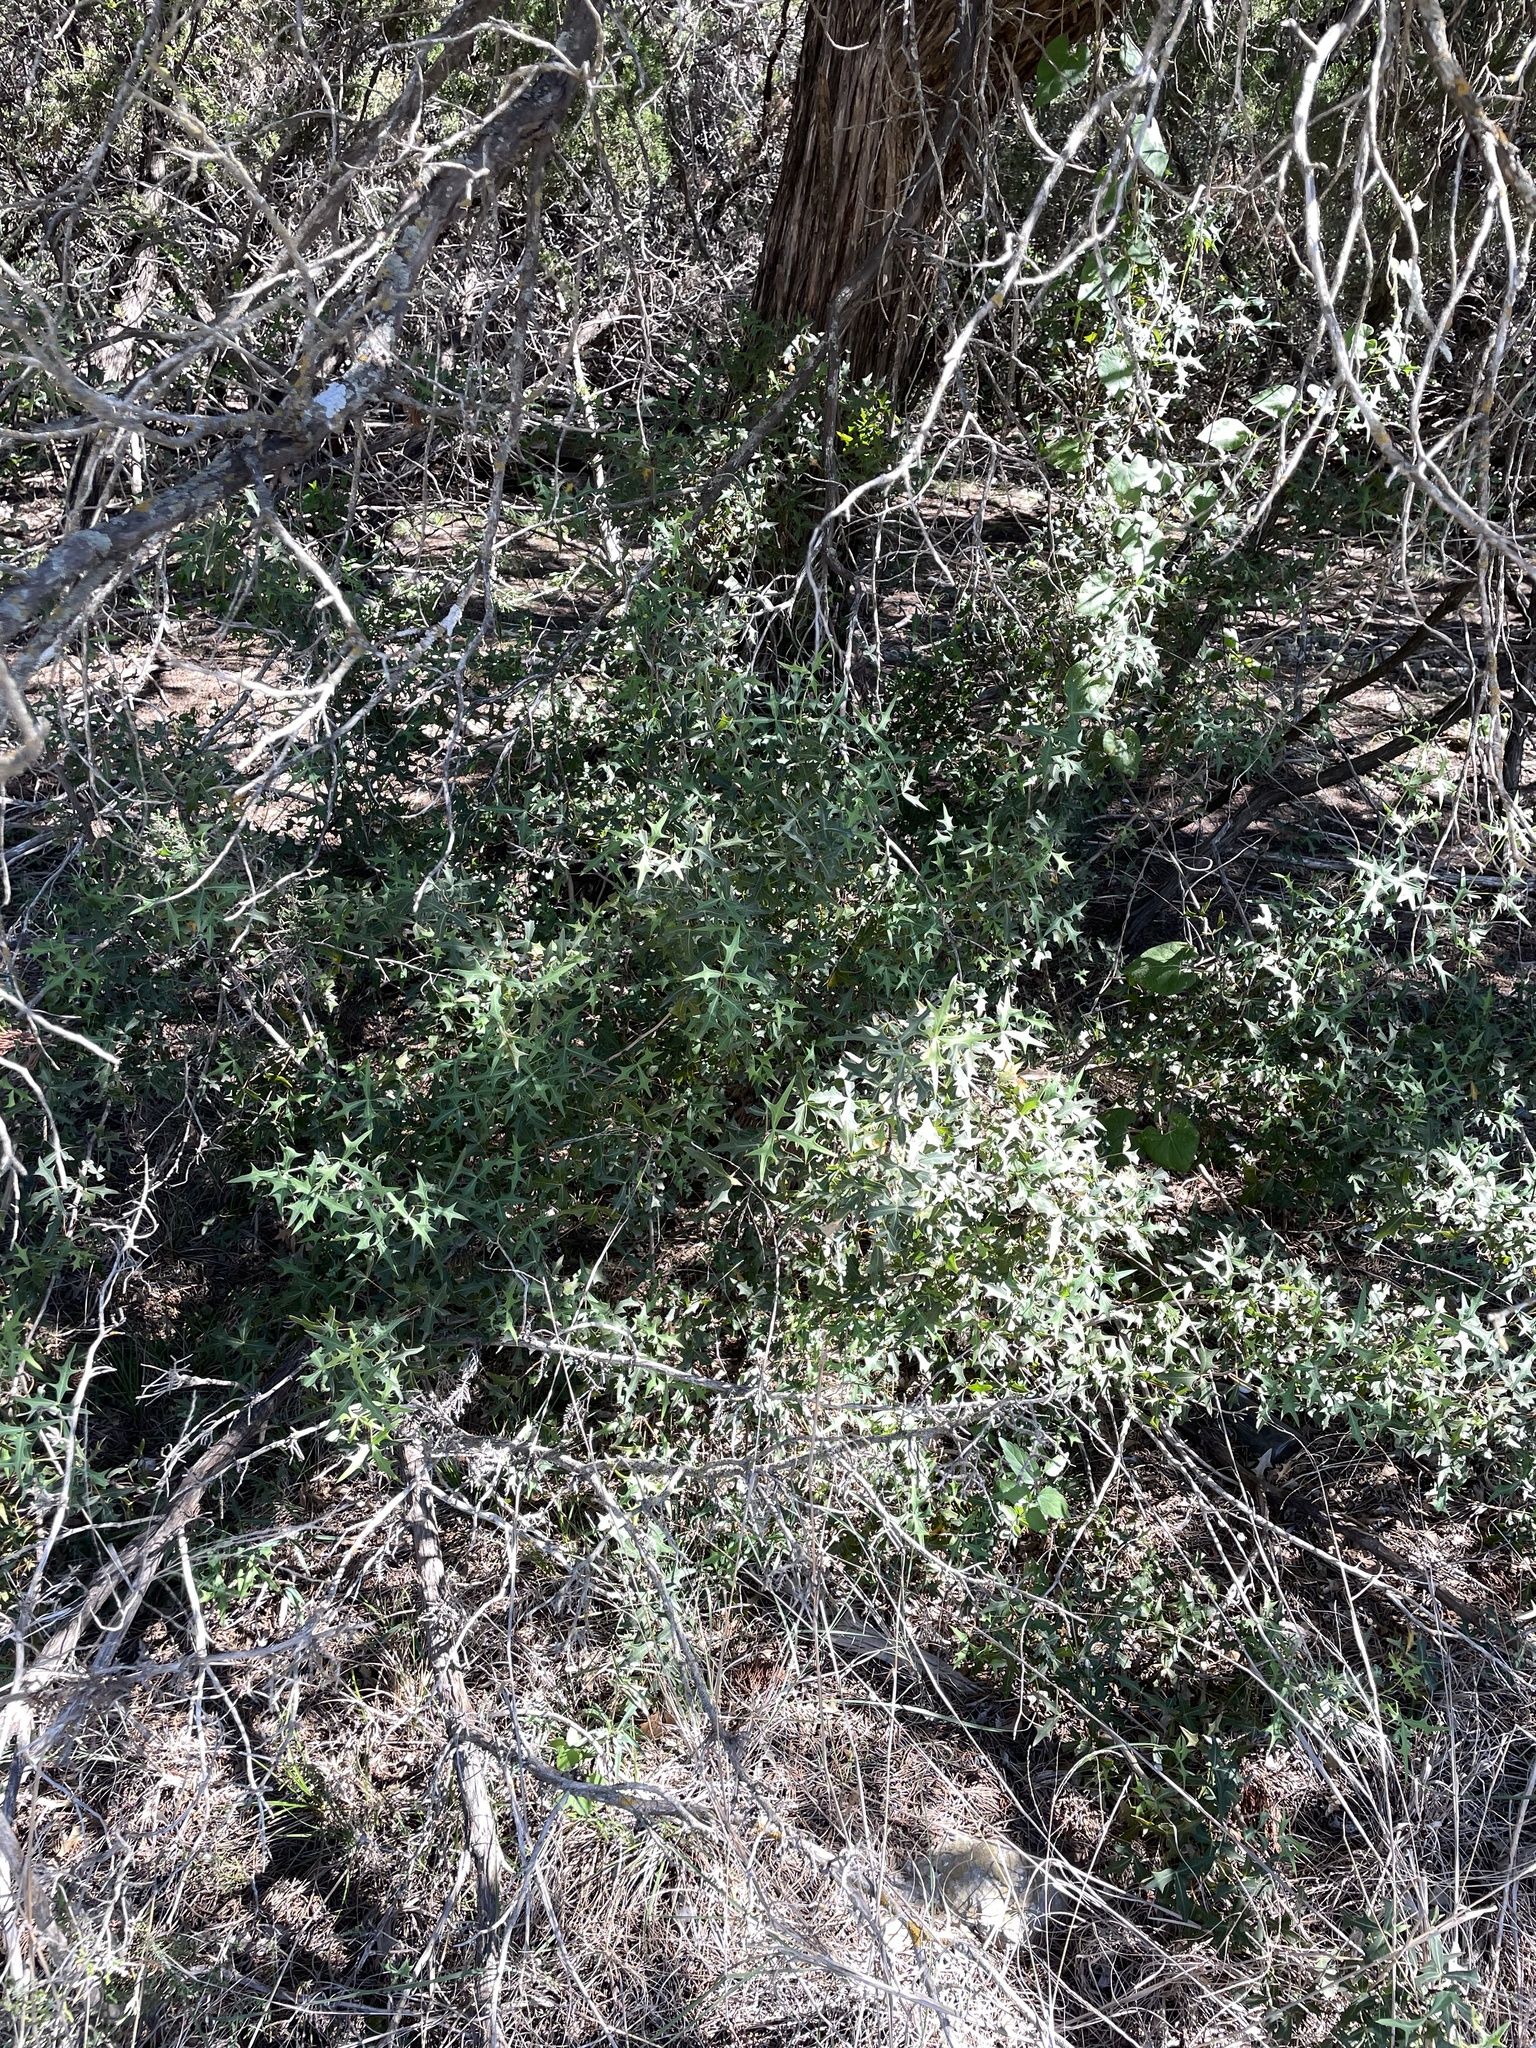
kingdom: Plantae
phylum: Tracheophyta
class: Magnoliopsida
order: Ranunculales
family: Berberidaceae
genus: Alloberberis
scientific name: Alloberberis trifoliolata
